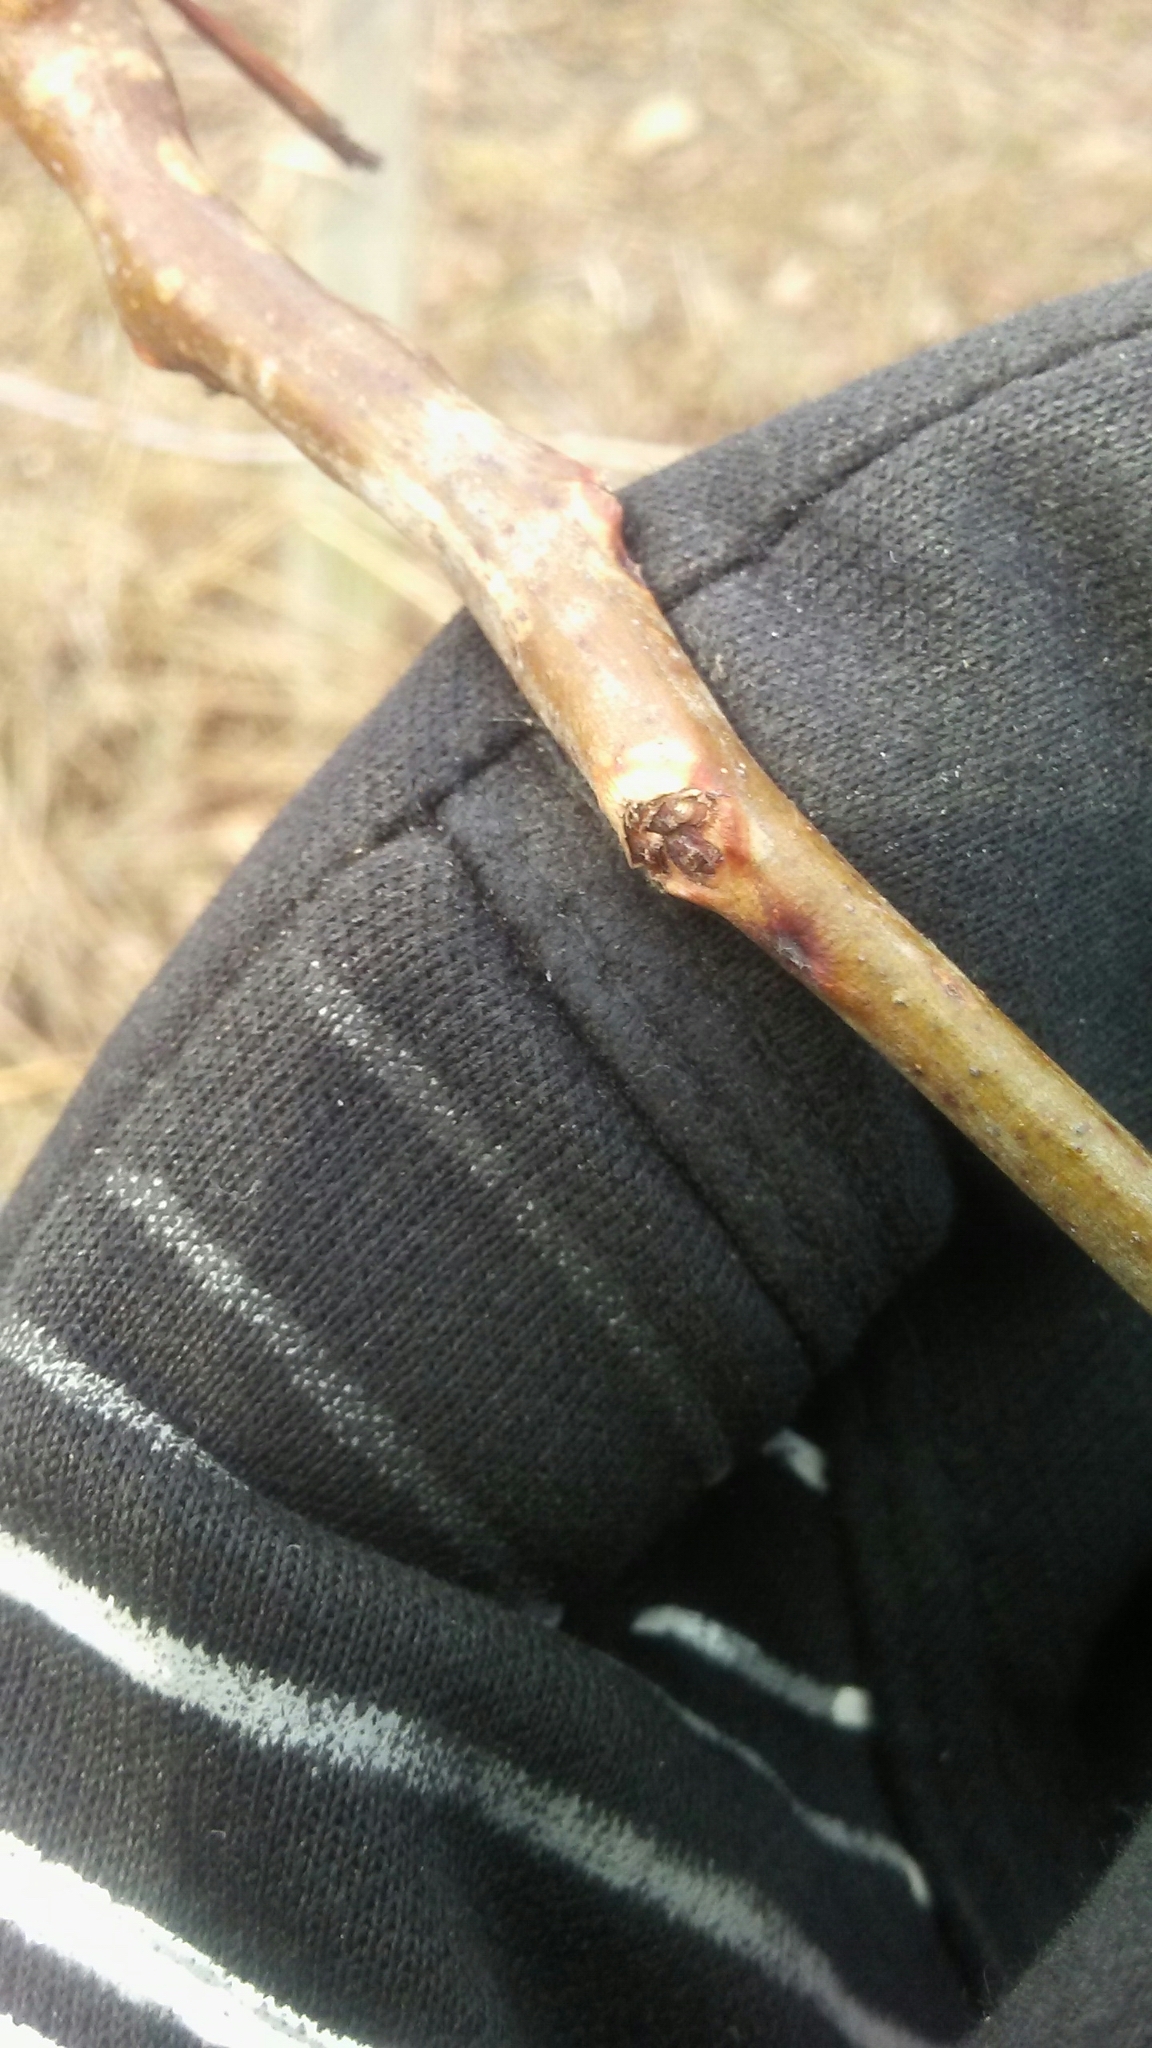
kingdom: Plantae
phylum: Tracheophyta
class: Magnoliopsida
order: Fabales
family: Fabaceae
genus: Gleditsia
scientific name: Gleditsia triacanthos
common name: Common honeylocust
